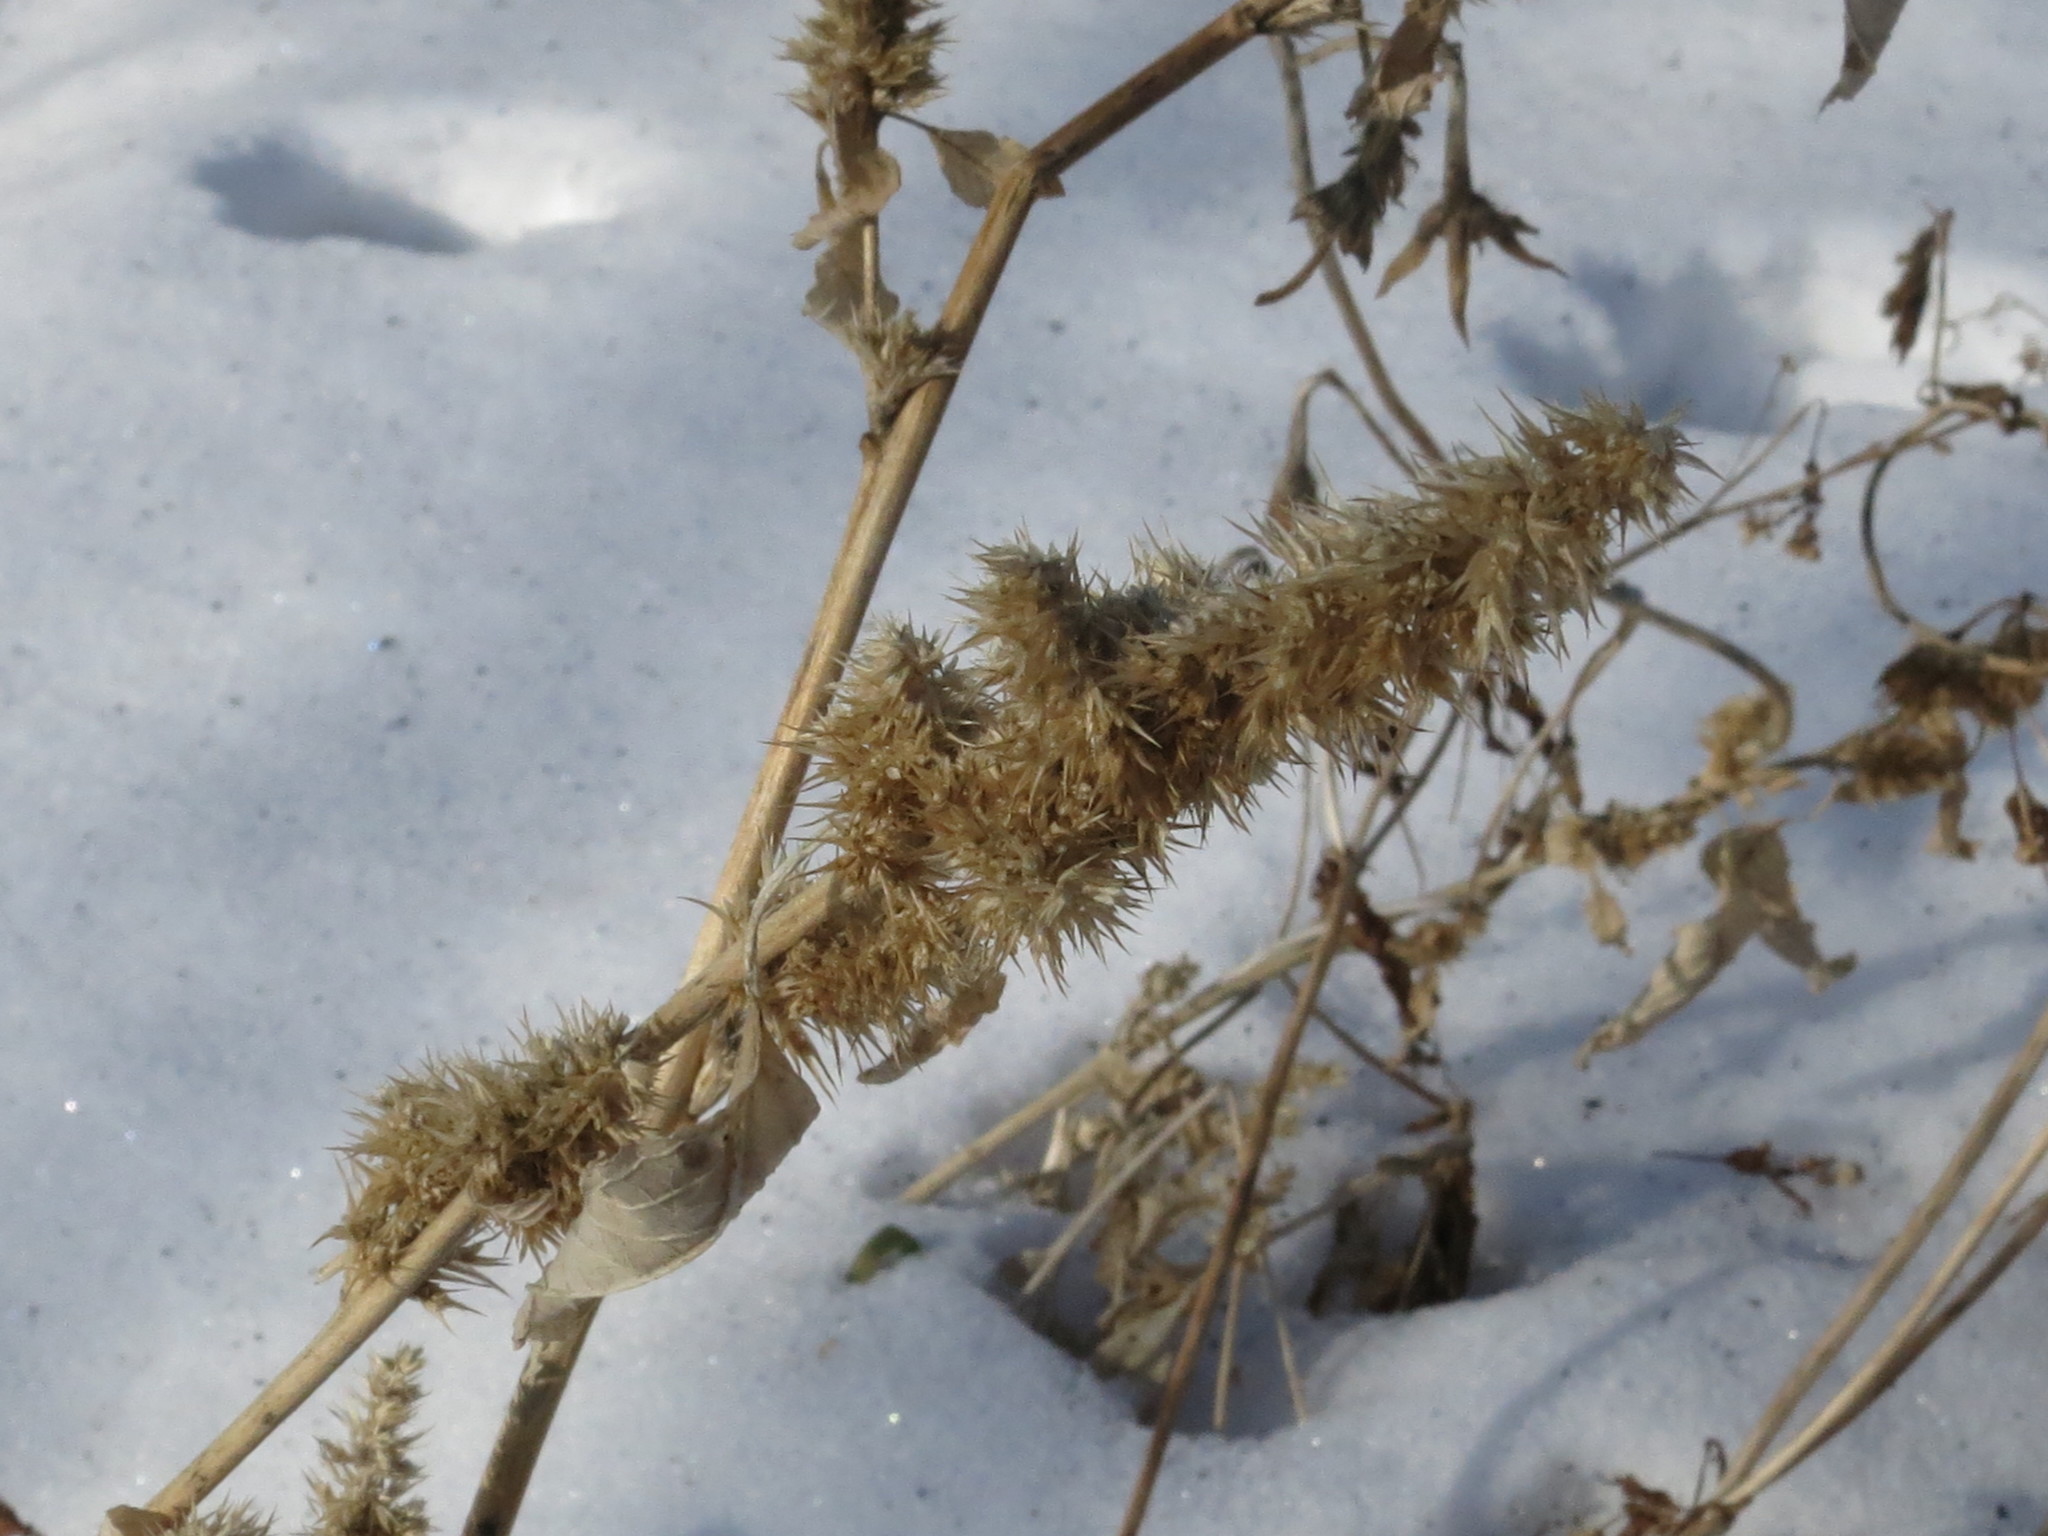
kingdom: Plantae
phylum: Tracheophyta
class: Magnoliopsida
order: Caryophyllales
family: Amaranthaceae
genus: Amaranthus
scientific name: Amaranthus retroflexus
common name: Redroot amaranth
